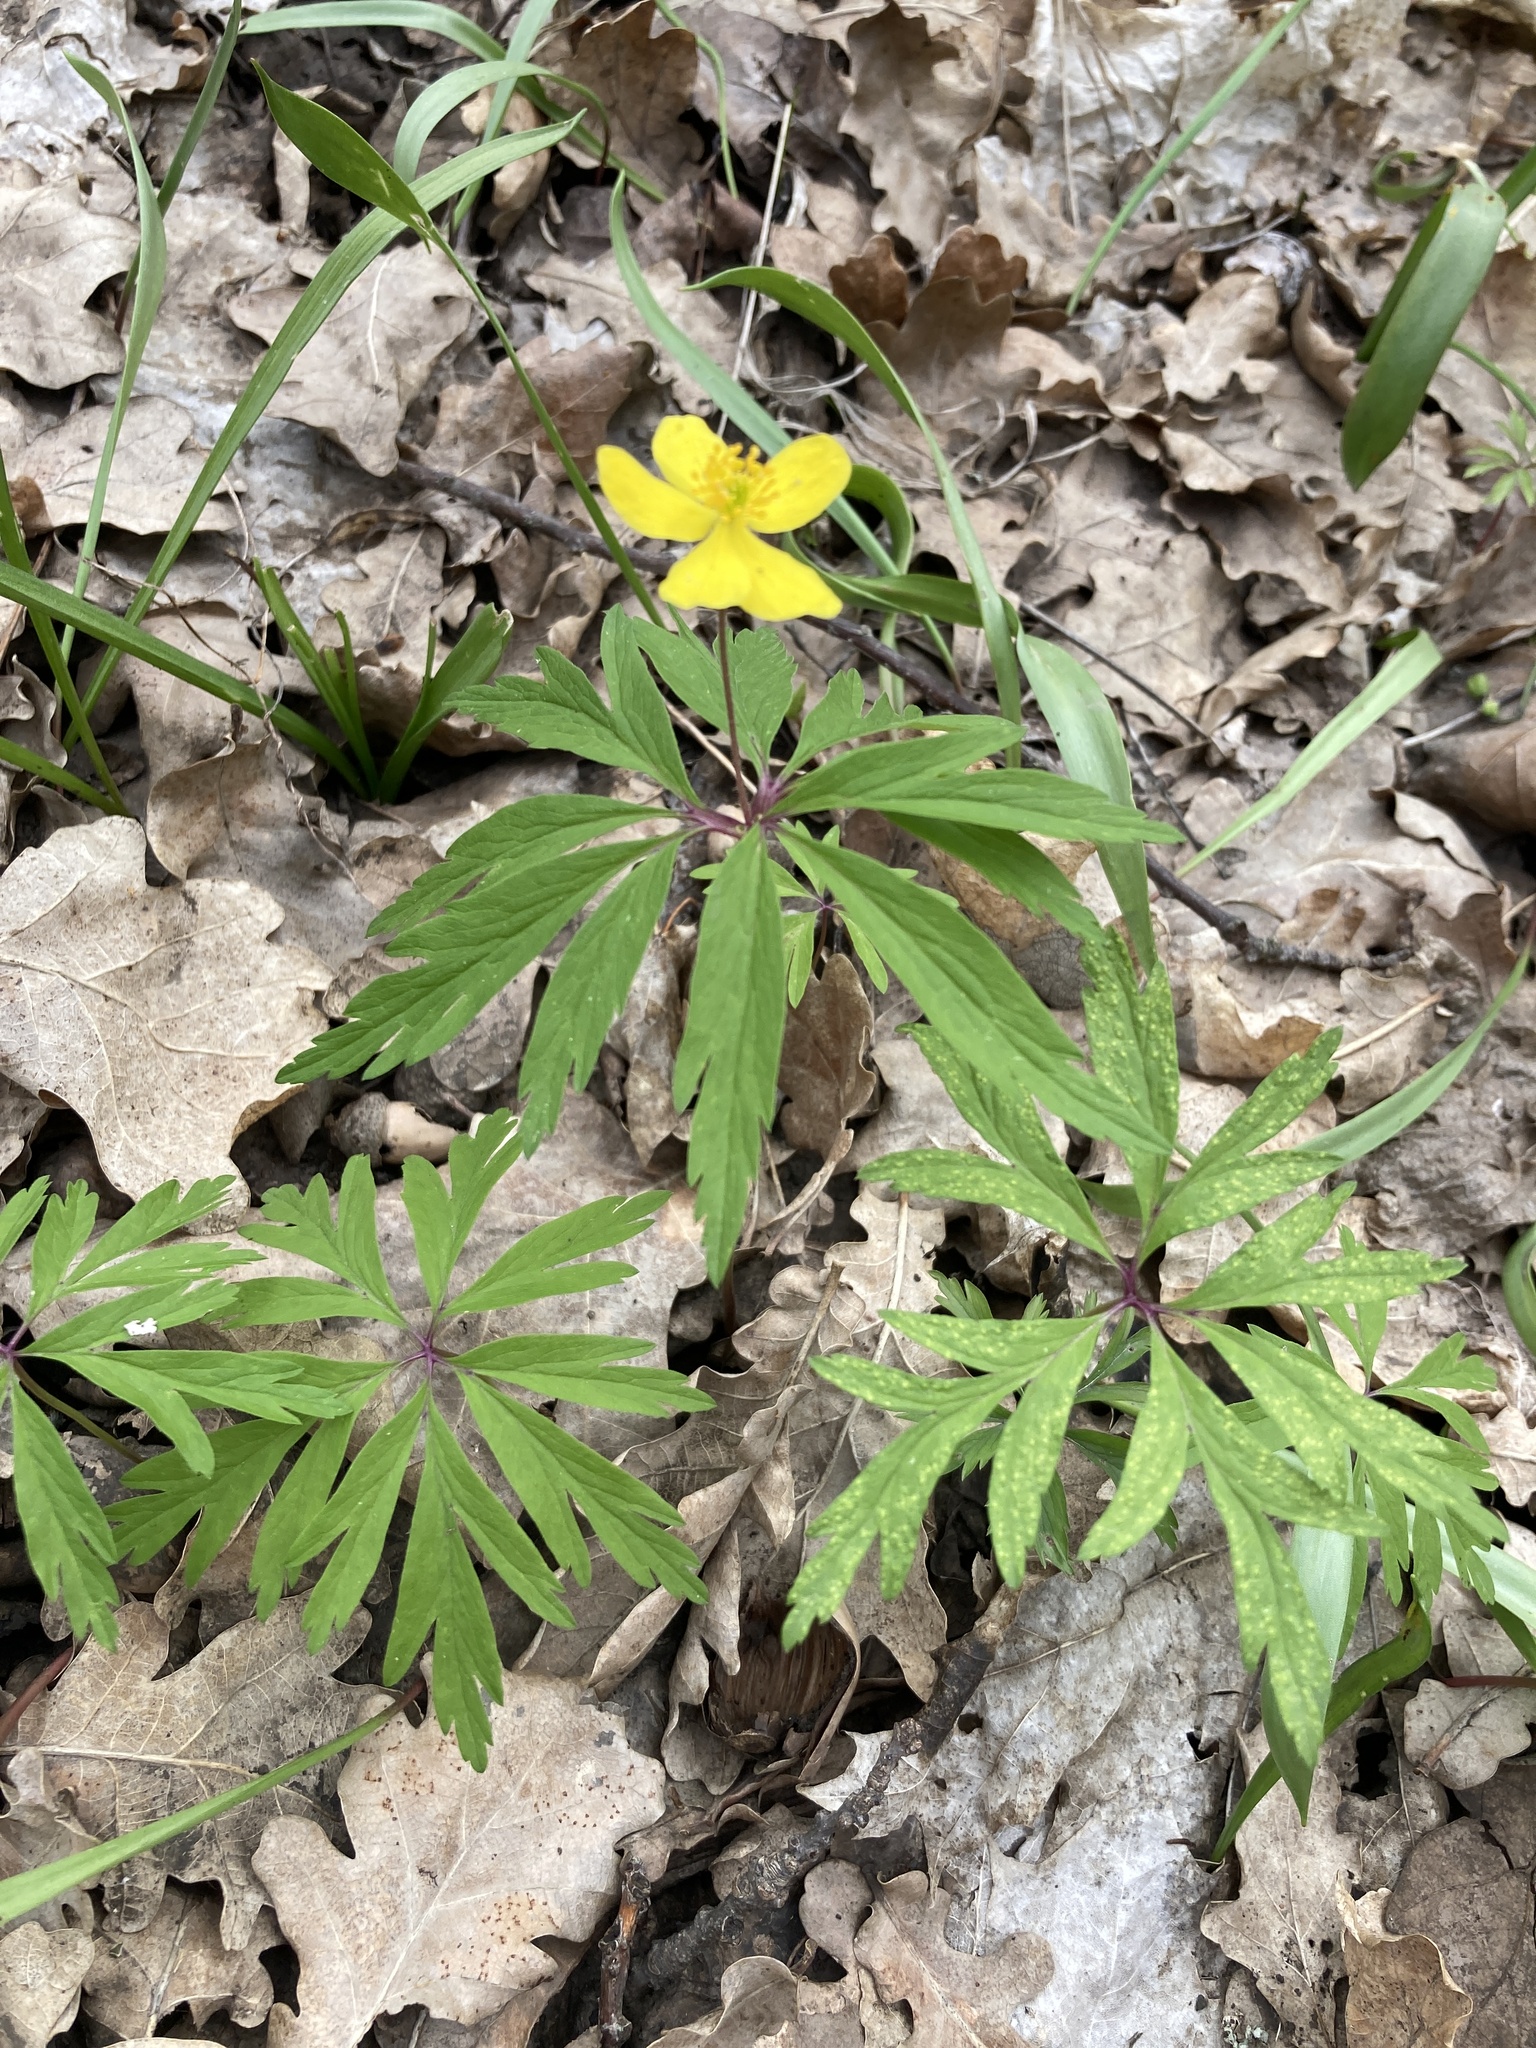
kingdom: Plantae
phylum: Tracheophyta
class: Magnoliopsida
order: Ranunculales
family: Ranunculaceae
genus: Anemone
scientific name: Anemone ranunculoides
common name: Yellow anemone
